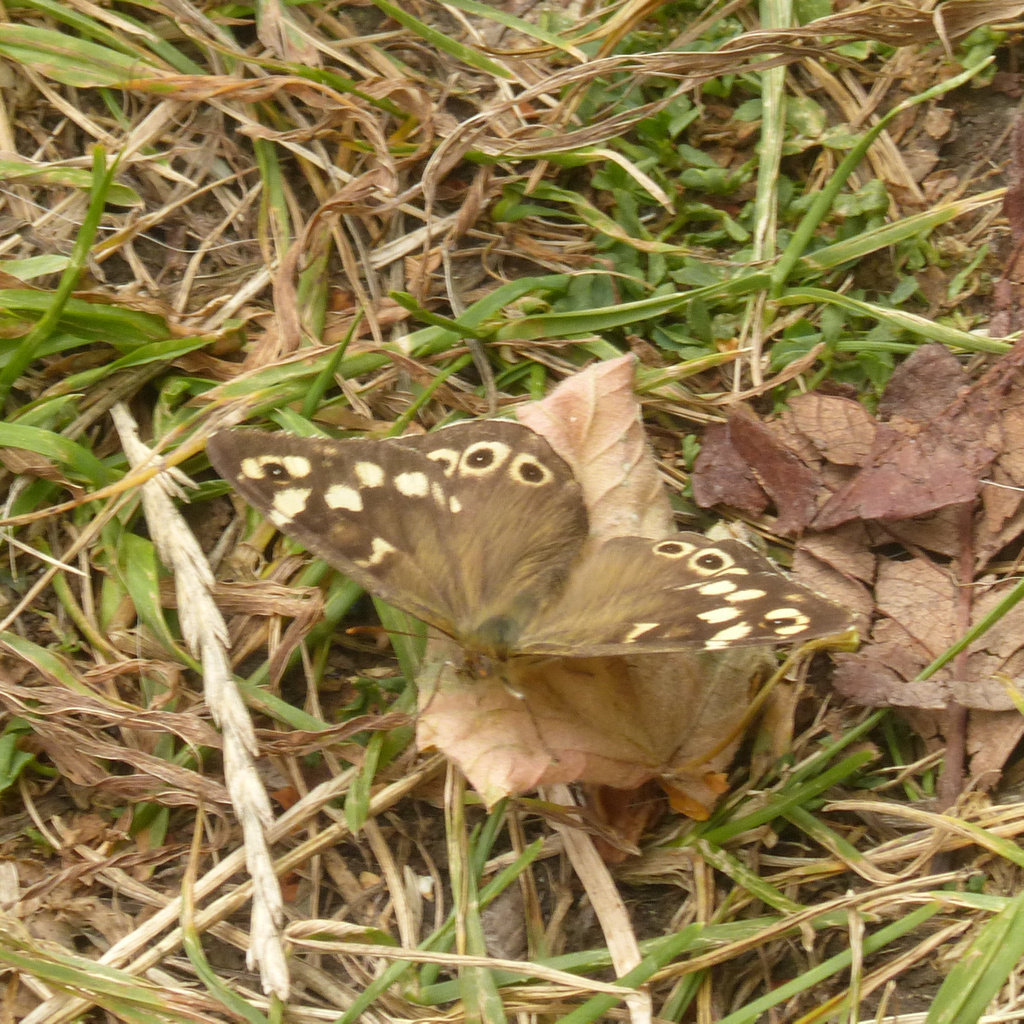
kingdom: Animalia
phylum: Arthropoda
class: Insecta
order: Lepidoptera
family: Nymphalidae
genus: Pararge
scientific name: Pararge aegeria
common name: Speckled wood
